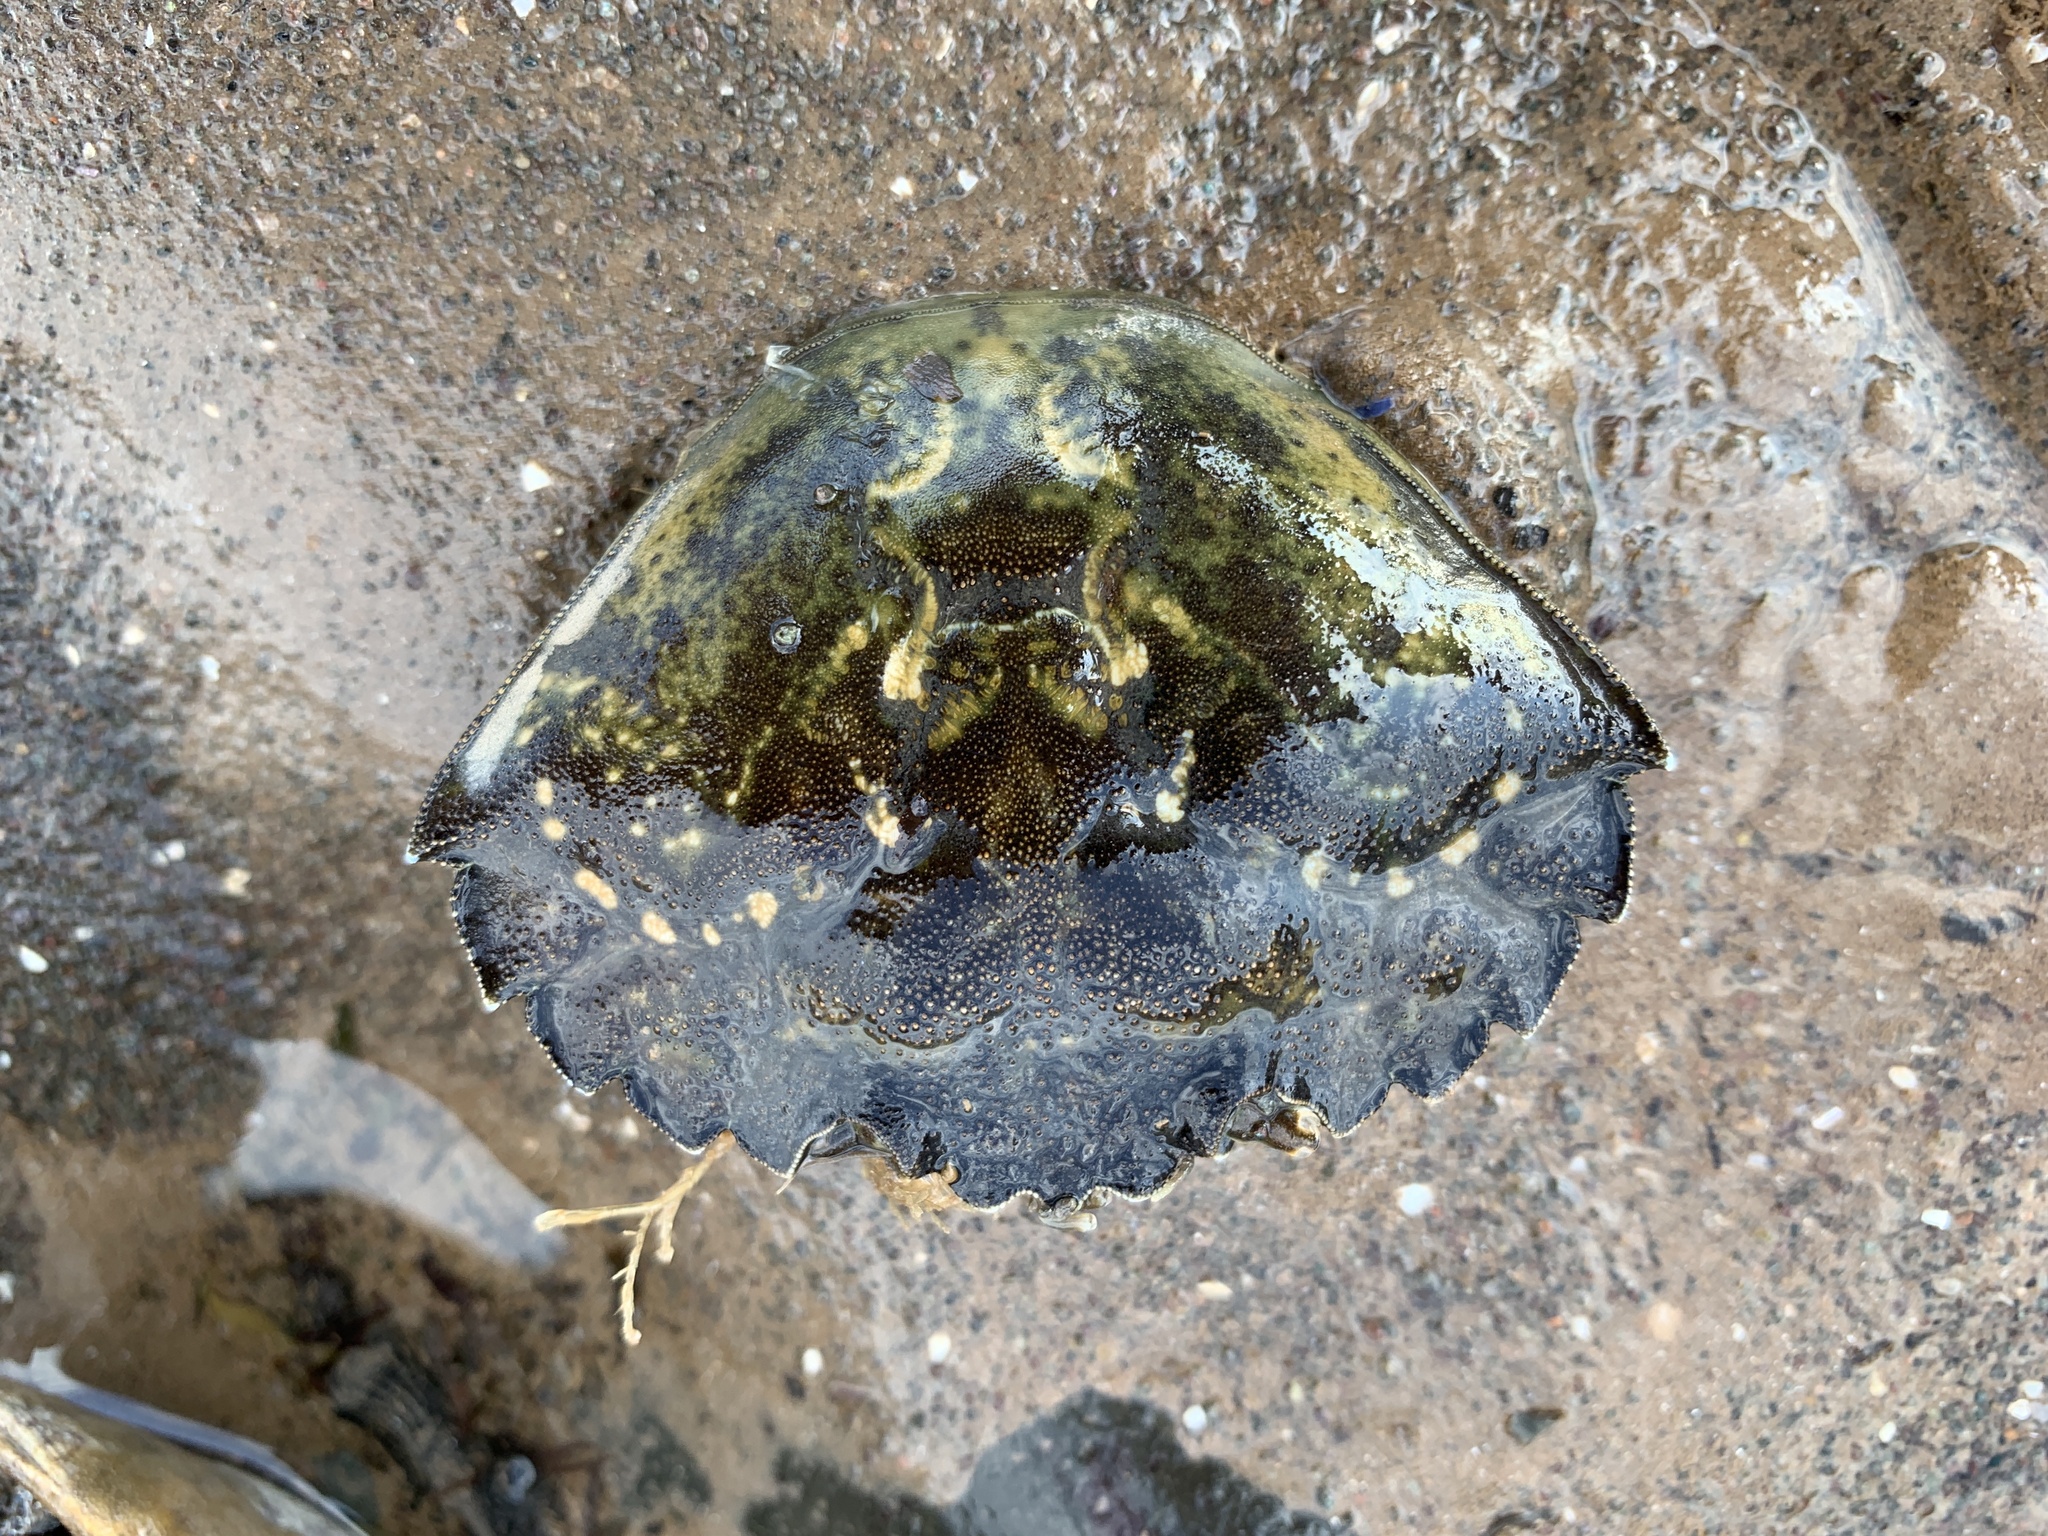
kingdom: Animalia
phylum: Arthropoda
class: Malacostraca
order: Decapoda
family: Carcinidae
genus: Carcinus
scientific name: Carcinus maenas
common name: European green crab
